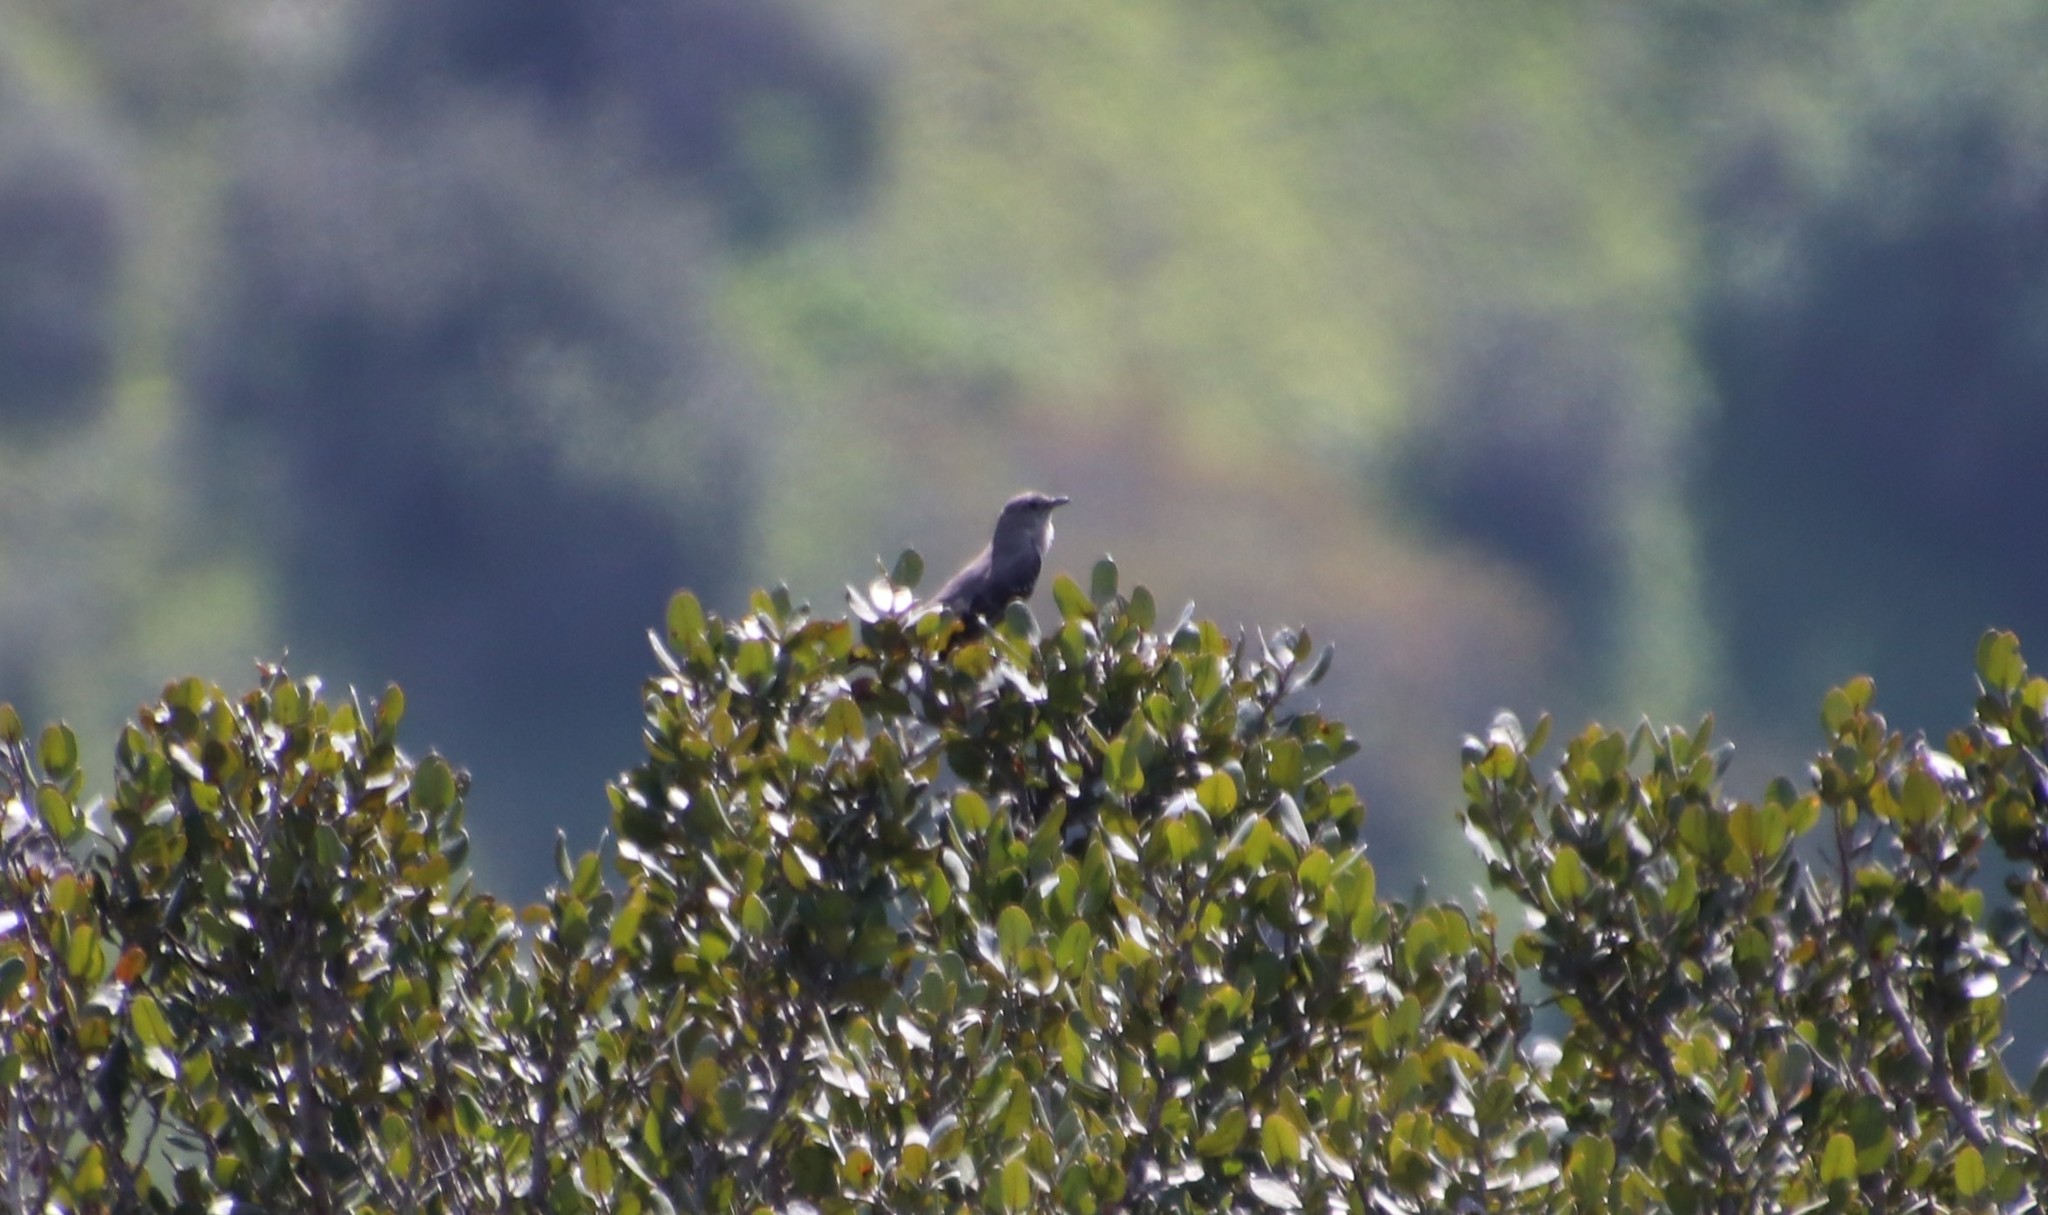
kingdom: Animalia
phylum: Chordata
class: Aves
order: Passeriformes
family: Mimidae
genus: Mimus
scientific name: Mimus polyglottos
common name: Northern mockingbird
